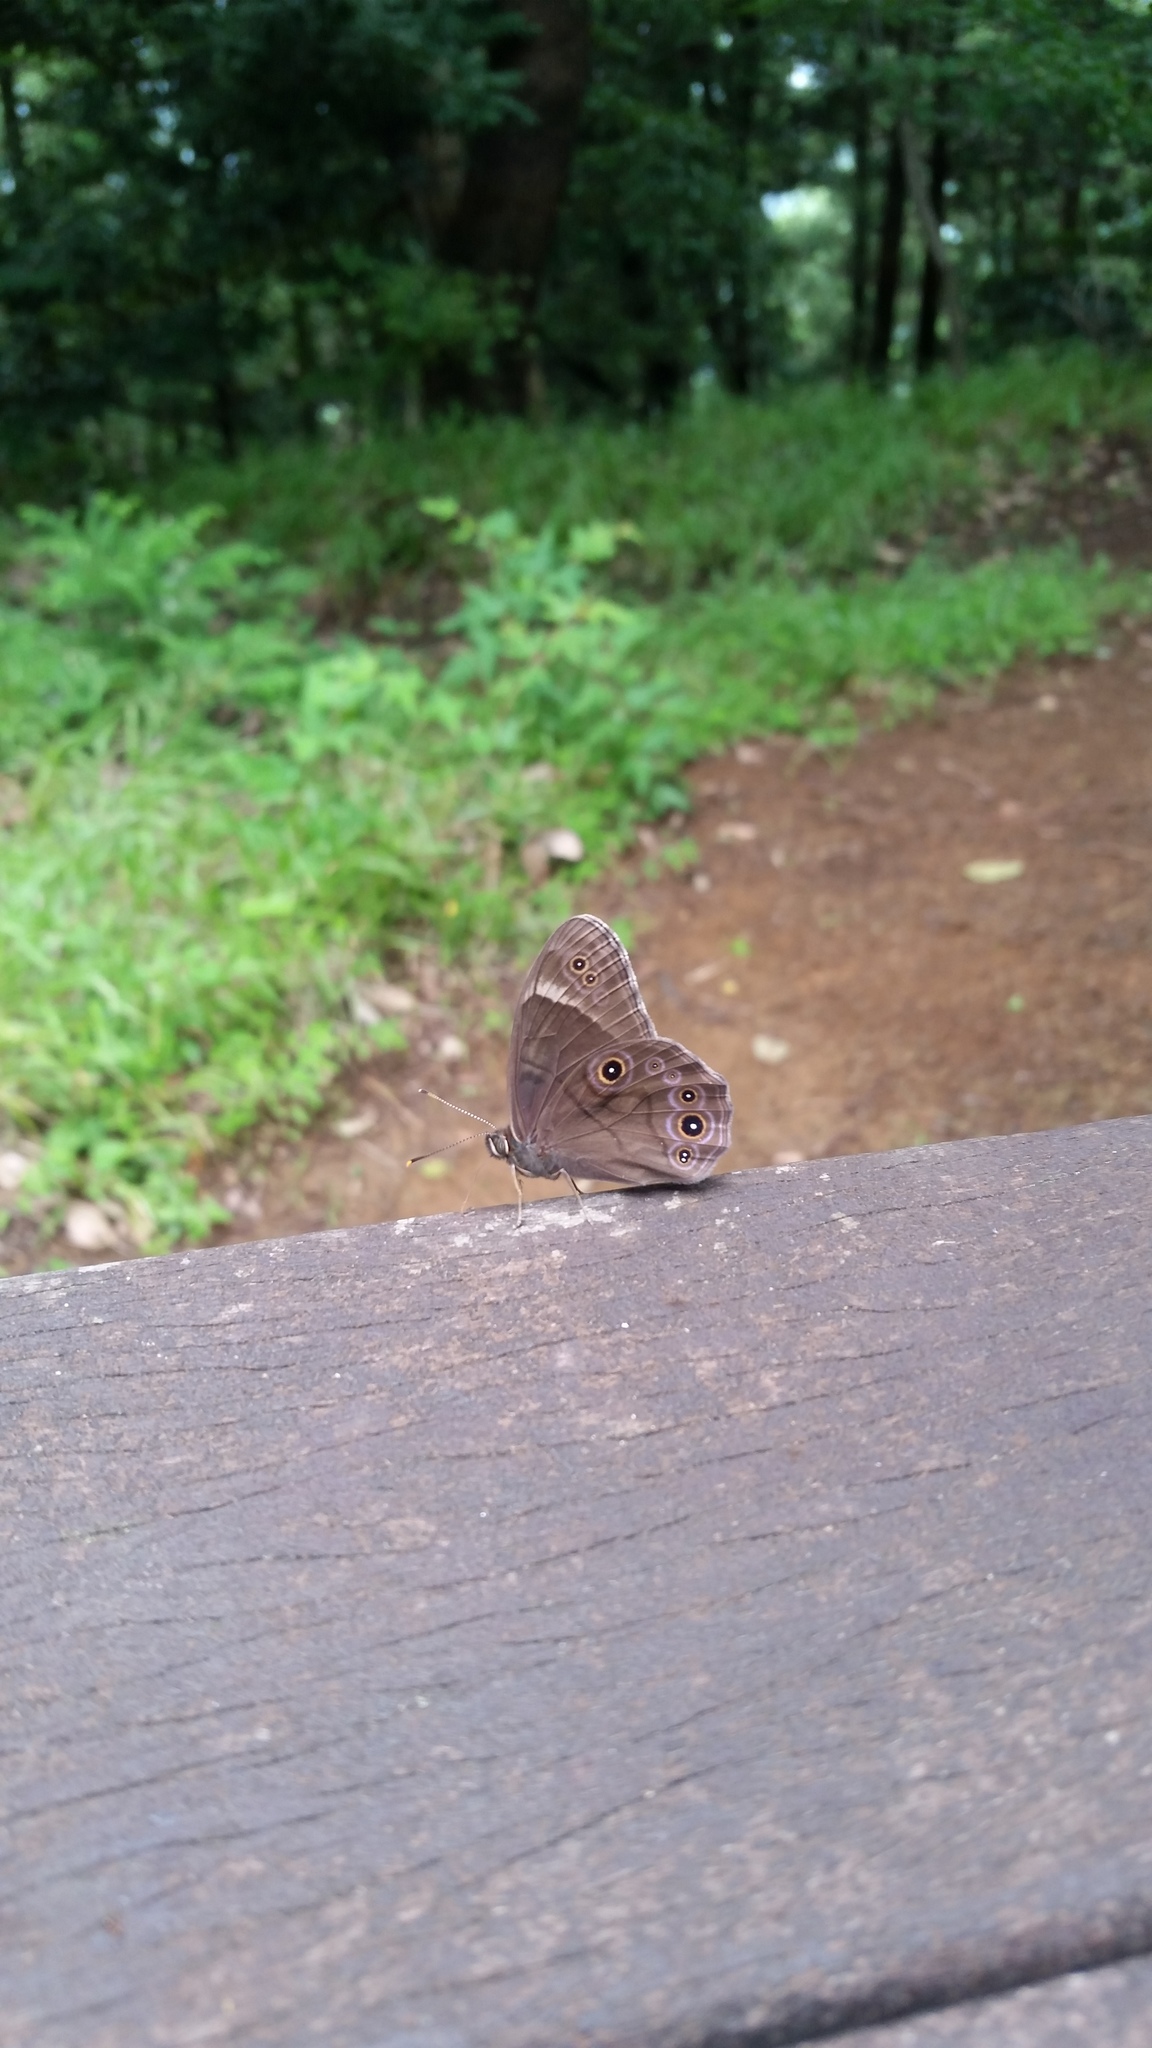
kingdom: Animalia
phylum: Arthropoda
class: Insecta
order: Lepidoptera
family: Nymphalidae
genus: Lethe
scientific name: Lethe diana
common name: Diana treebrown
